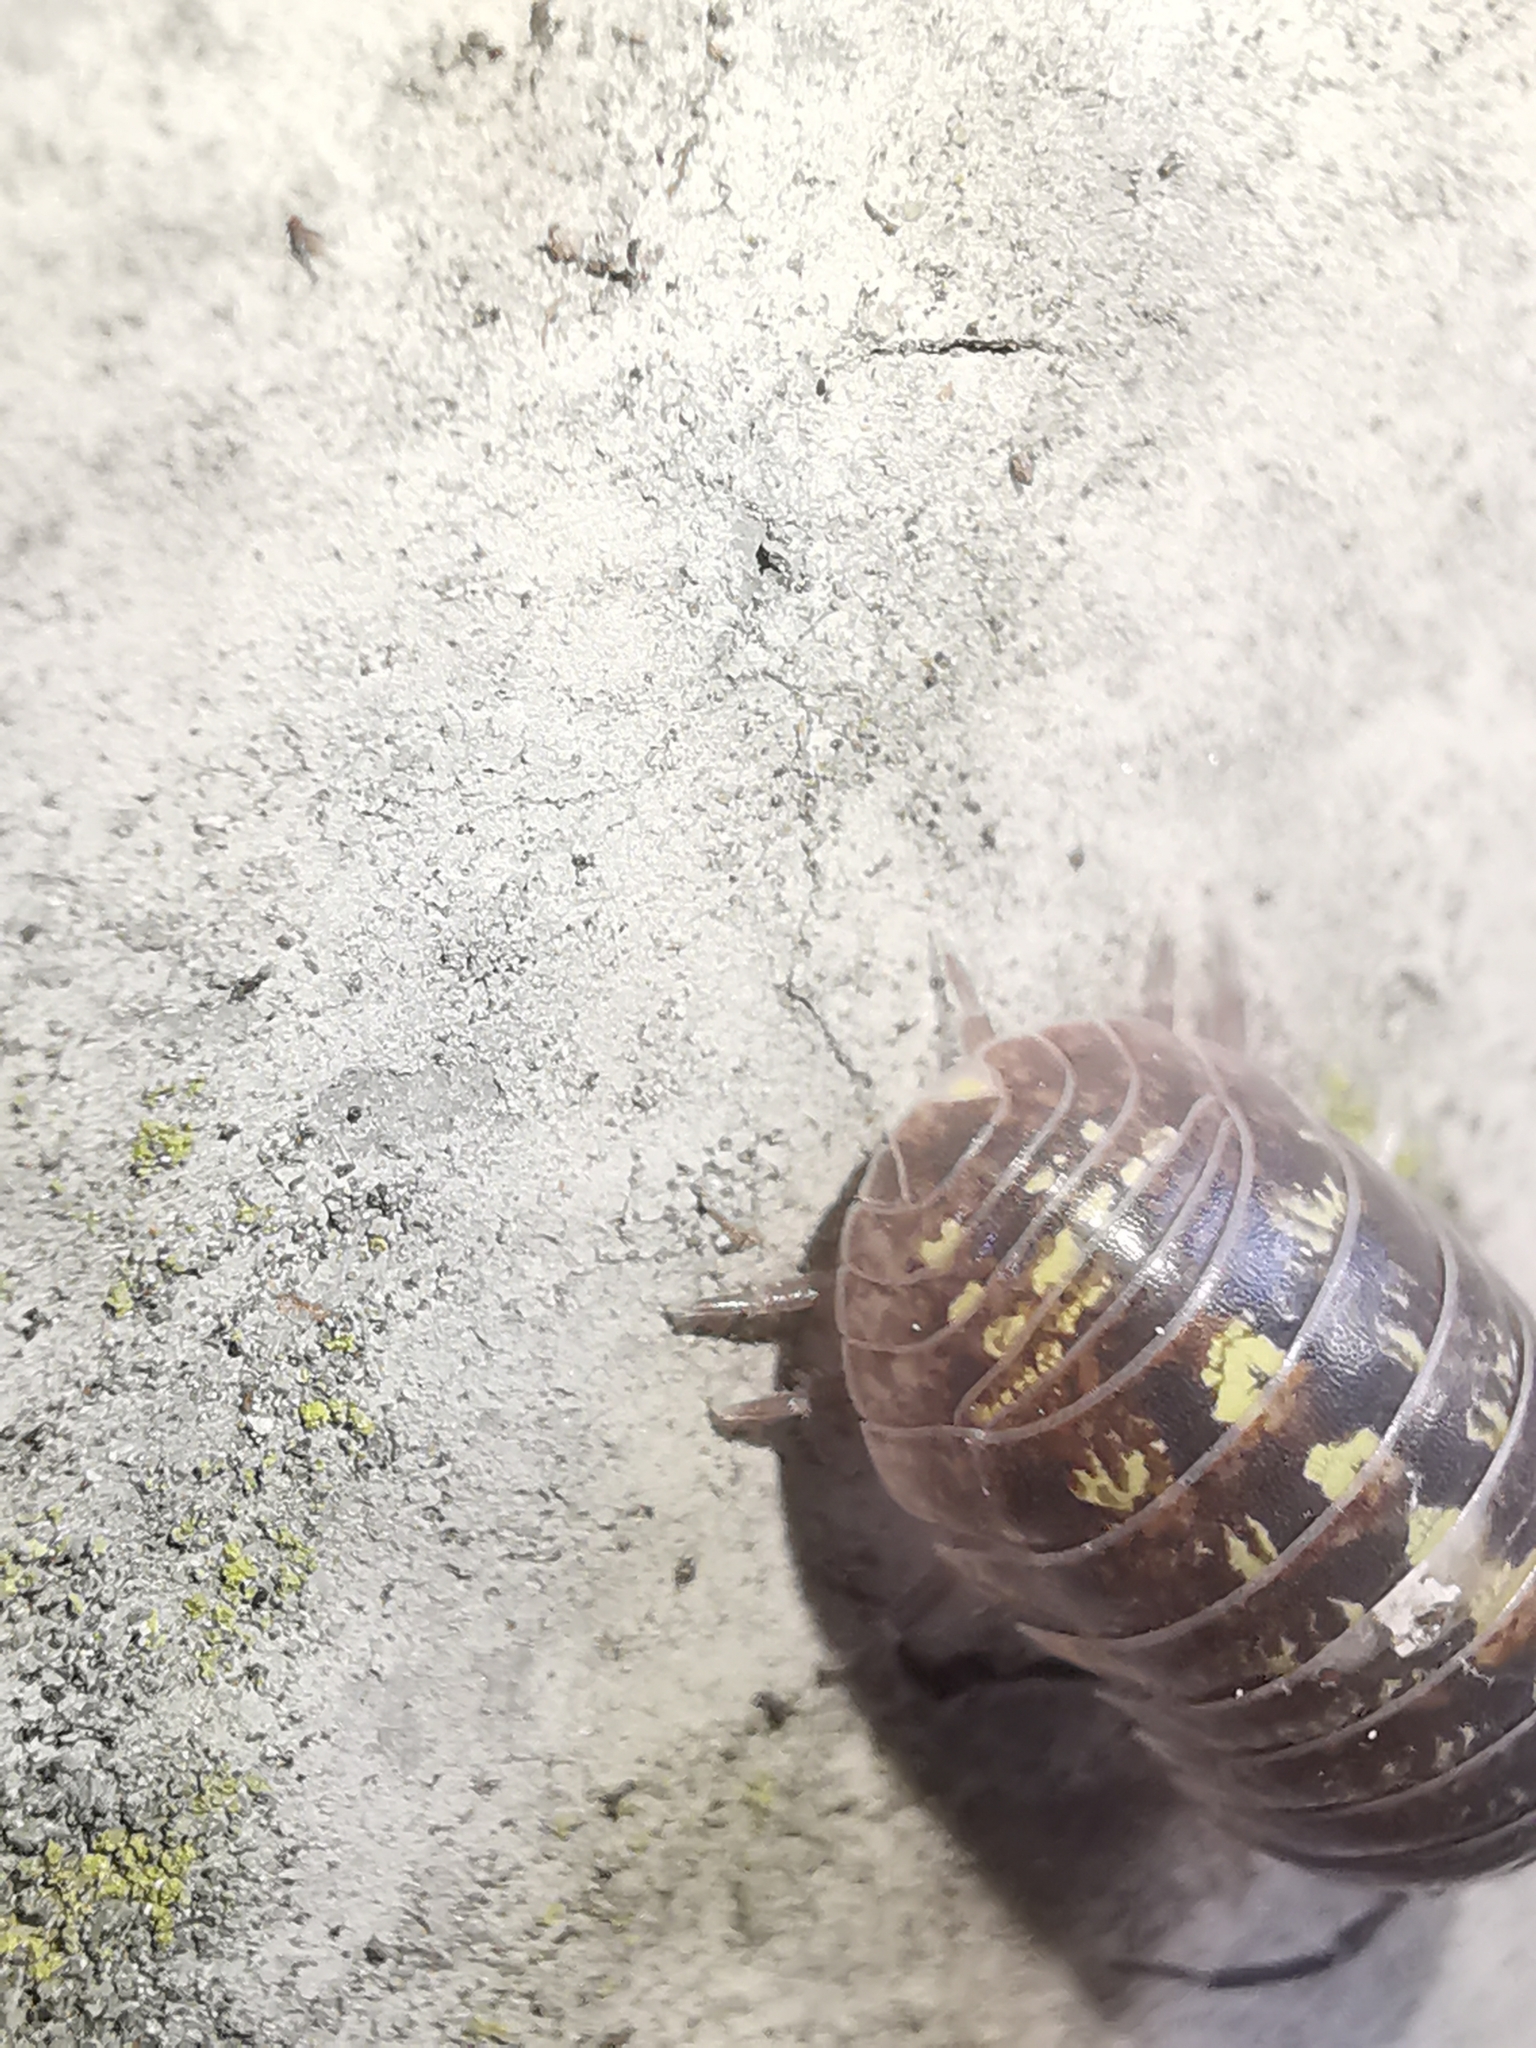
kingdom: Animalia
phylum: Arthropoda
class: Malacostraca
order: Isopoda
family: Armadillidiidae
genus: Armadillidium
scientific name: Armadillidium vulgare
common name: Common pill woodlouse
